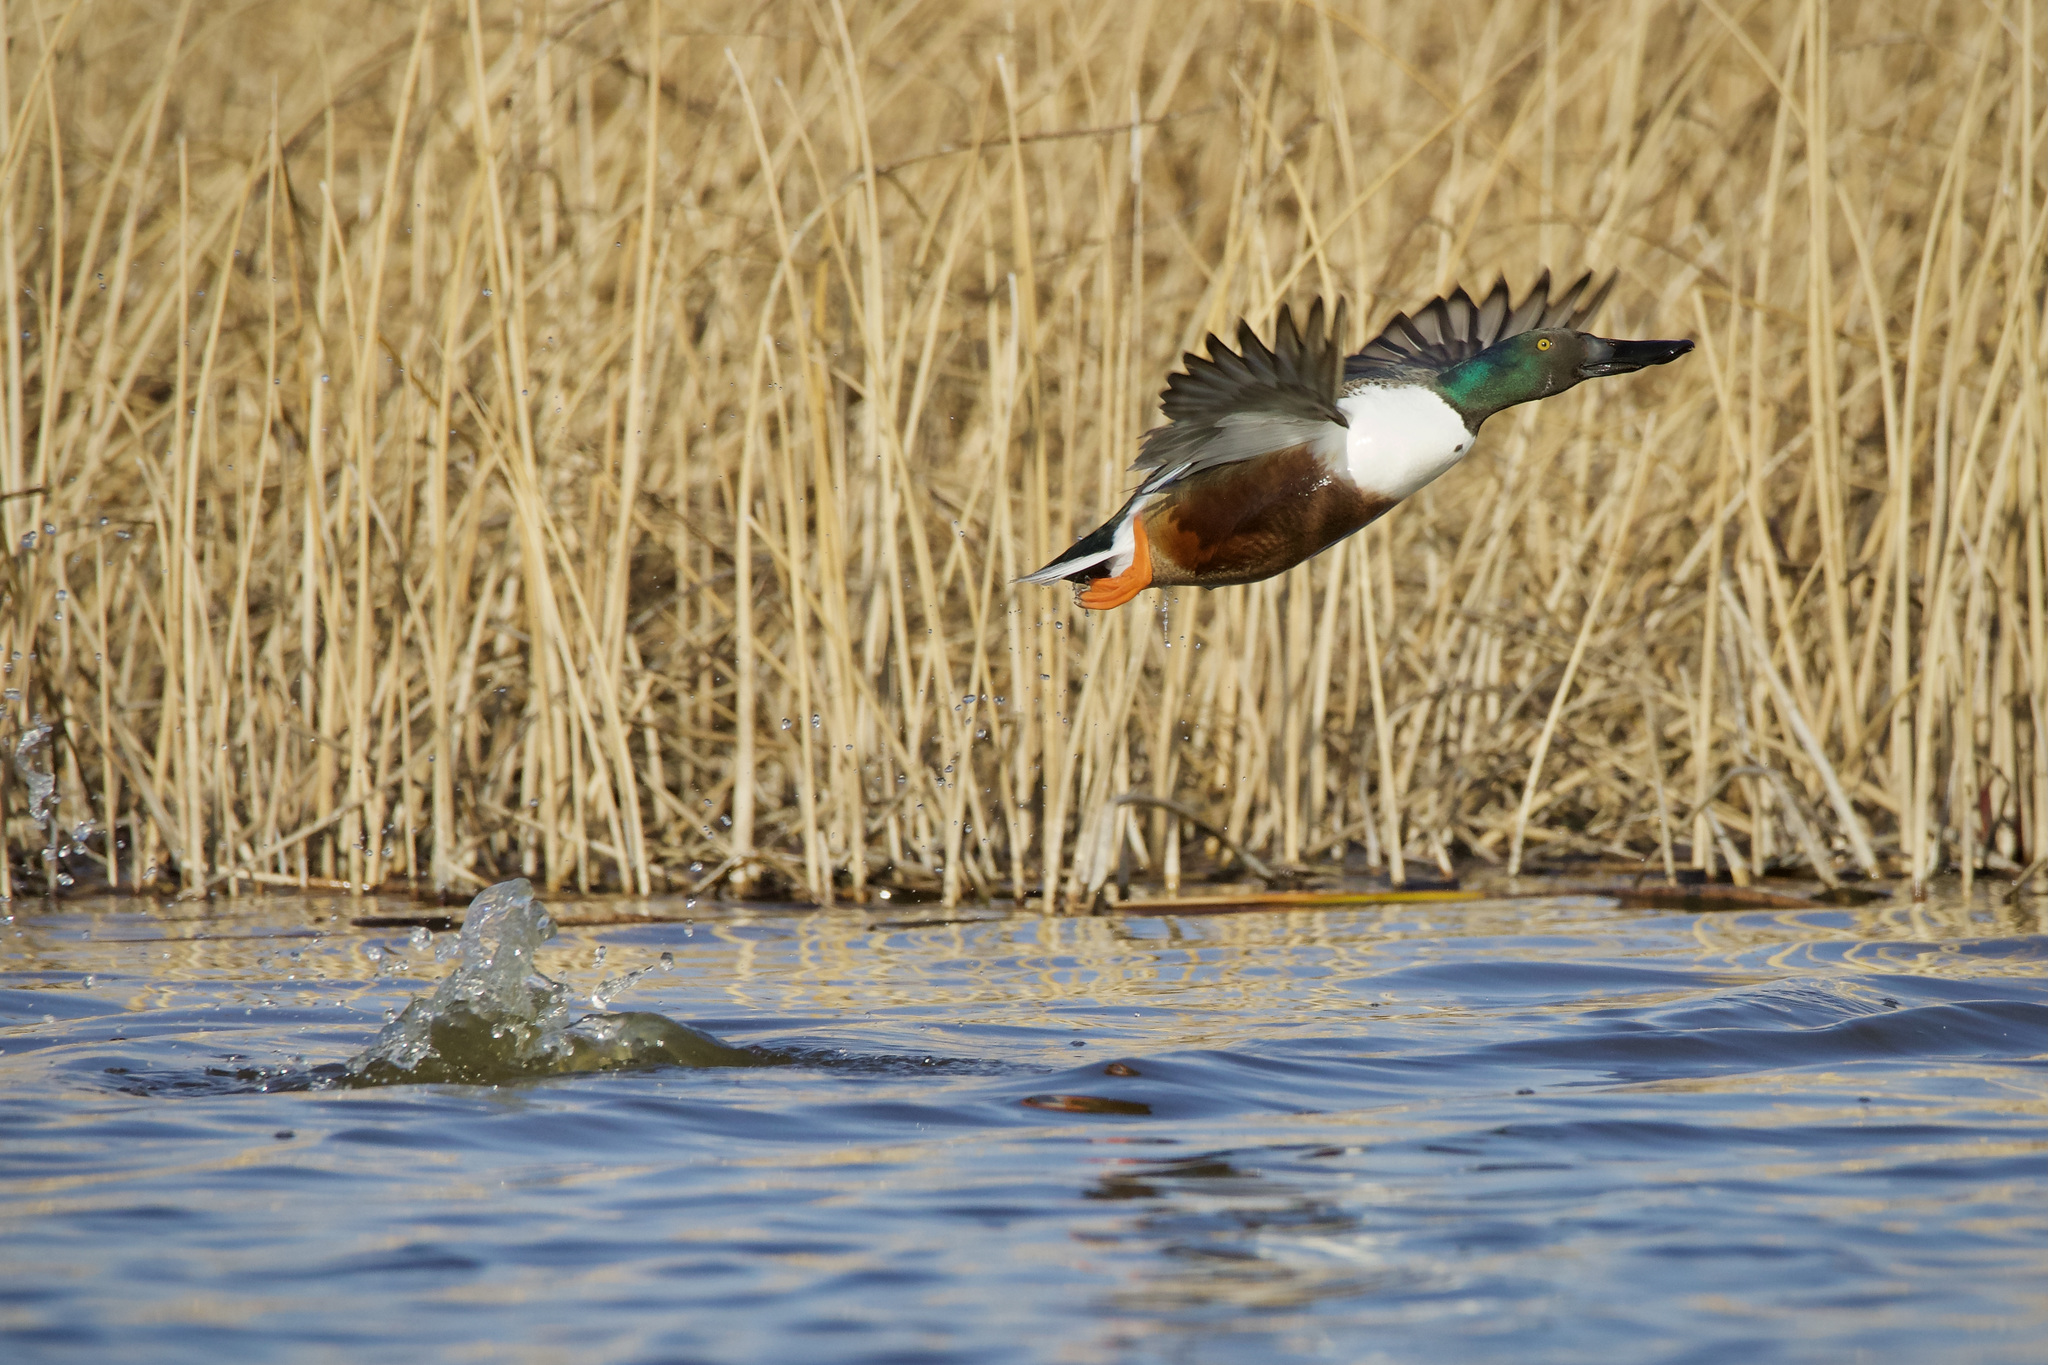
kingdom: Animalia
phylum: Chordata
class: Aves
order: Anseriformes
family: Anatidae
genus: Spatula
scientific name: Spatula clypeata
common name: Northern shoveler
